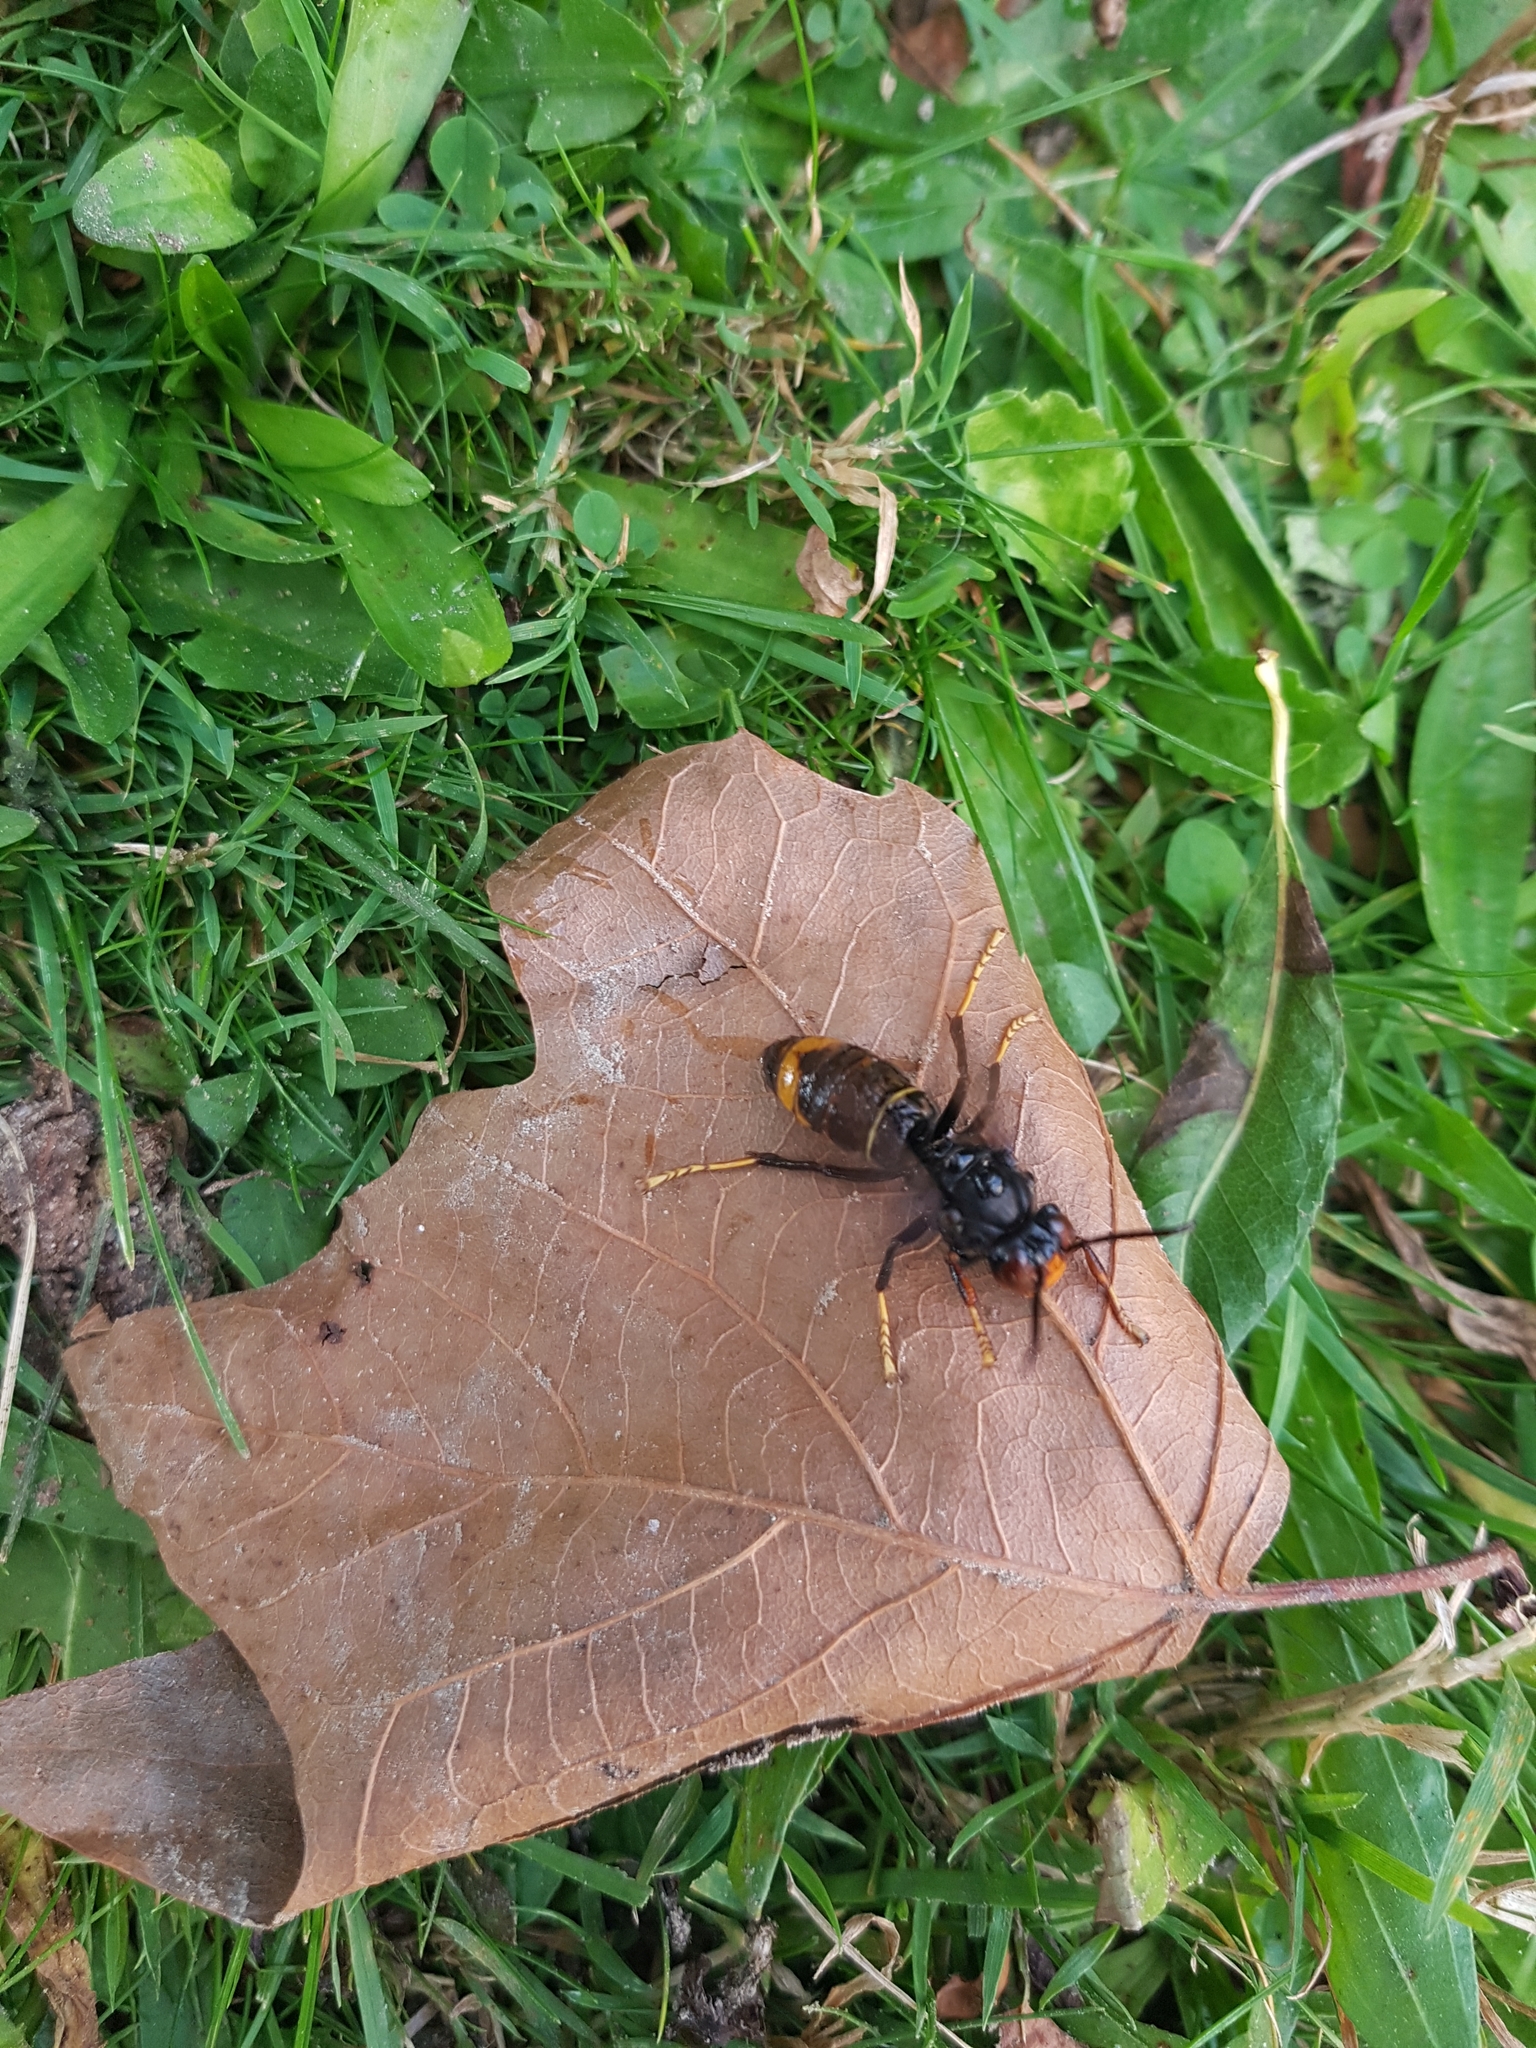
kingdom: Animalia
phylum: Arthropoda
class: Insecta
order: Hymenoptera
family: Vespidae
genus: Vespa
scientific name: Vespa velutina
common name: Asian hornet
